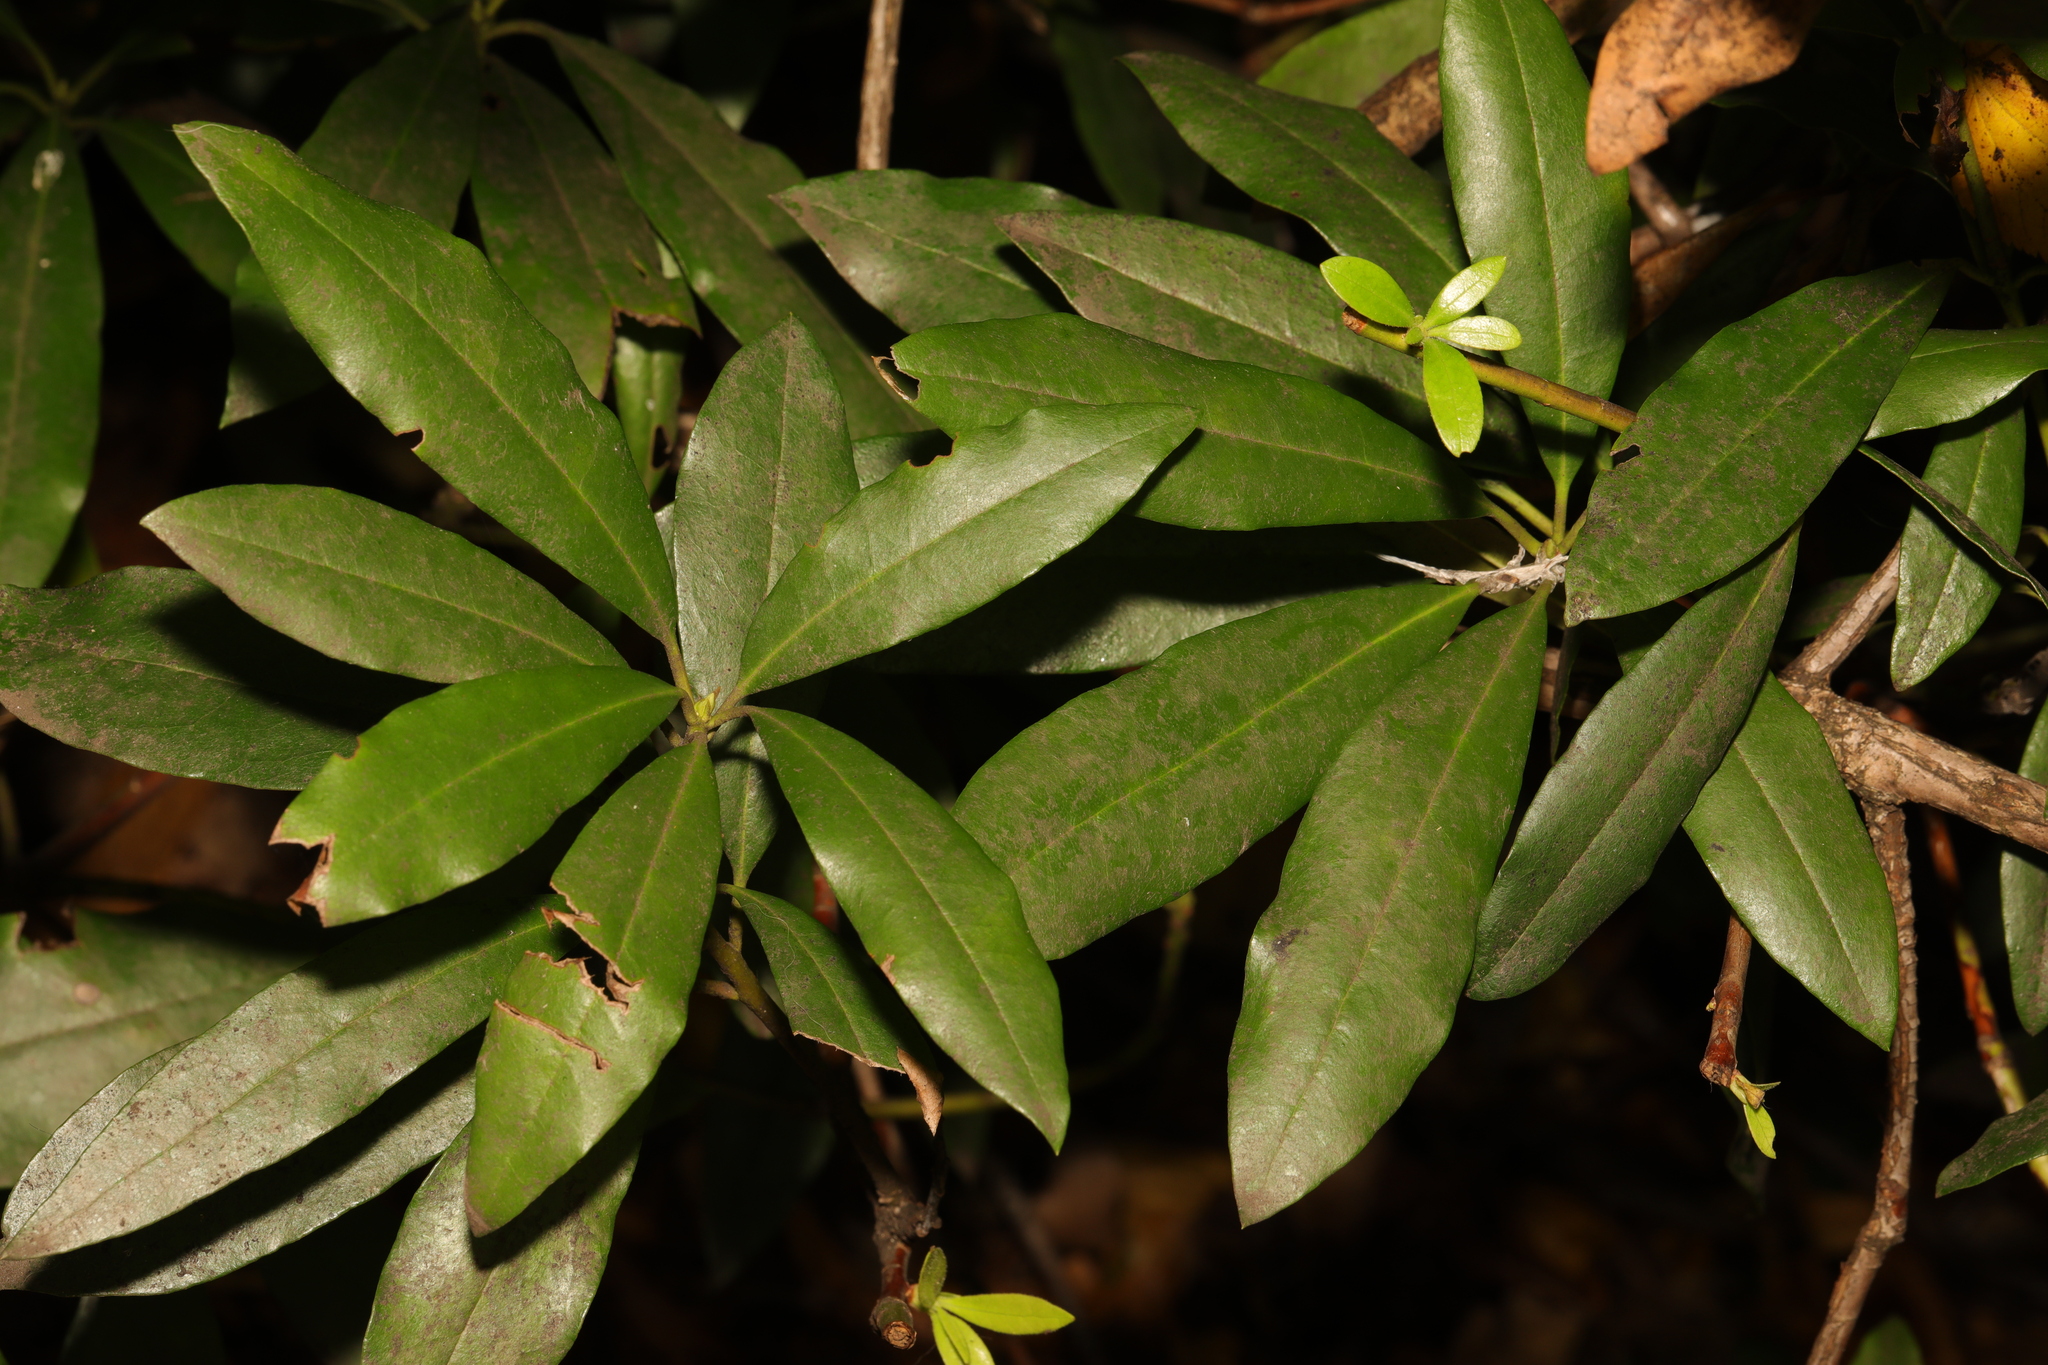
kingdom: Plantae
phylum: Tracheophyta
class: Magnoliopsida
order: Ericales
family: Ericaceae
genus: Rhododendron
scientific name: Rhododendron ponticum
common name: Rhododendron
